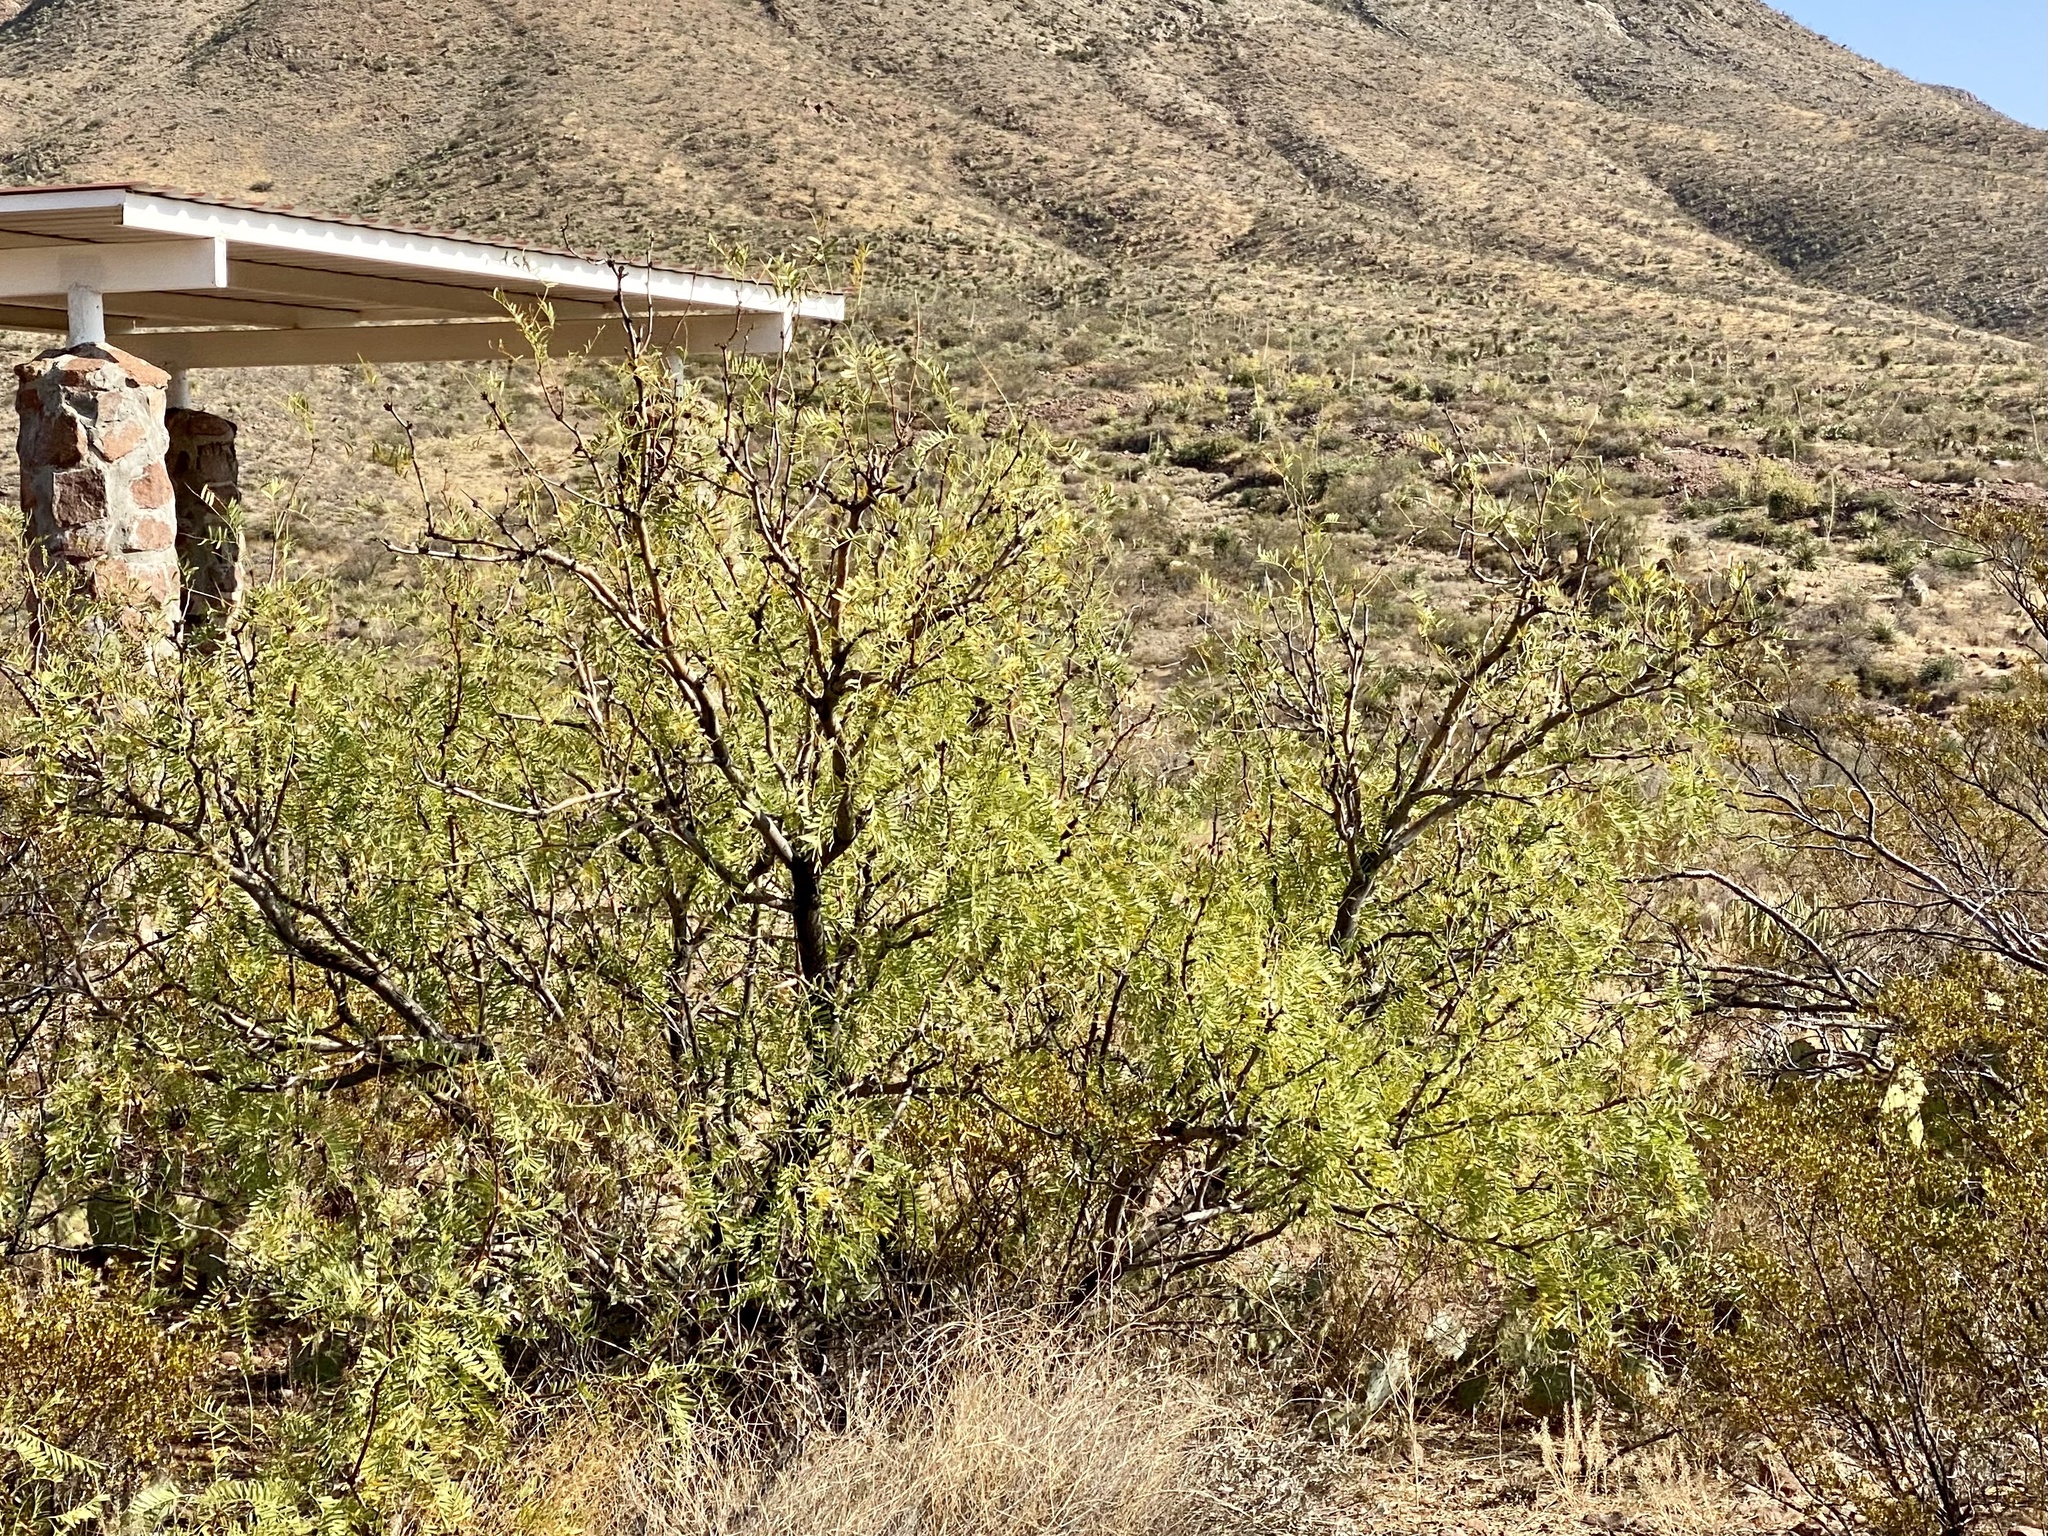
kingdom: Plantae
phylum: Tracheophyta
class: Magnoliopsida
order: Fabales
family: Fabaceae
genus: Prosopis
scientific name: Prosopis glandulosa
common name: Honey mesquite
